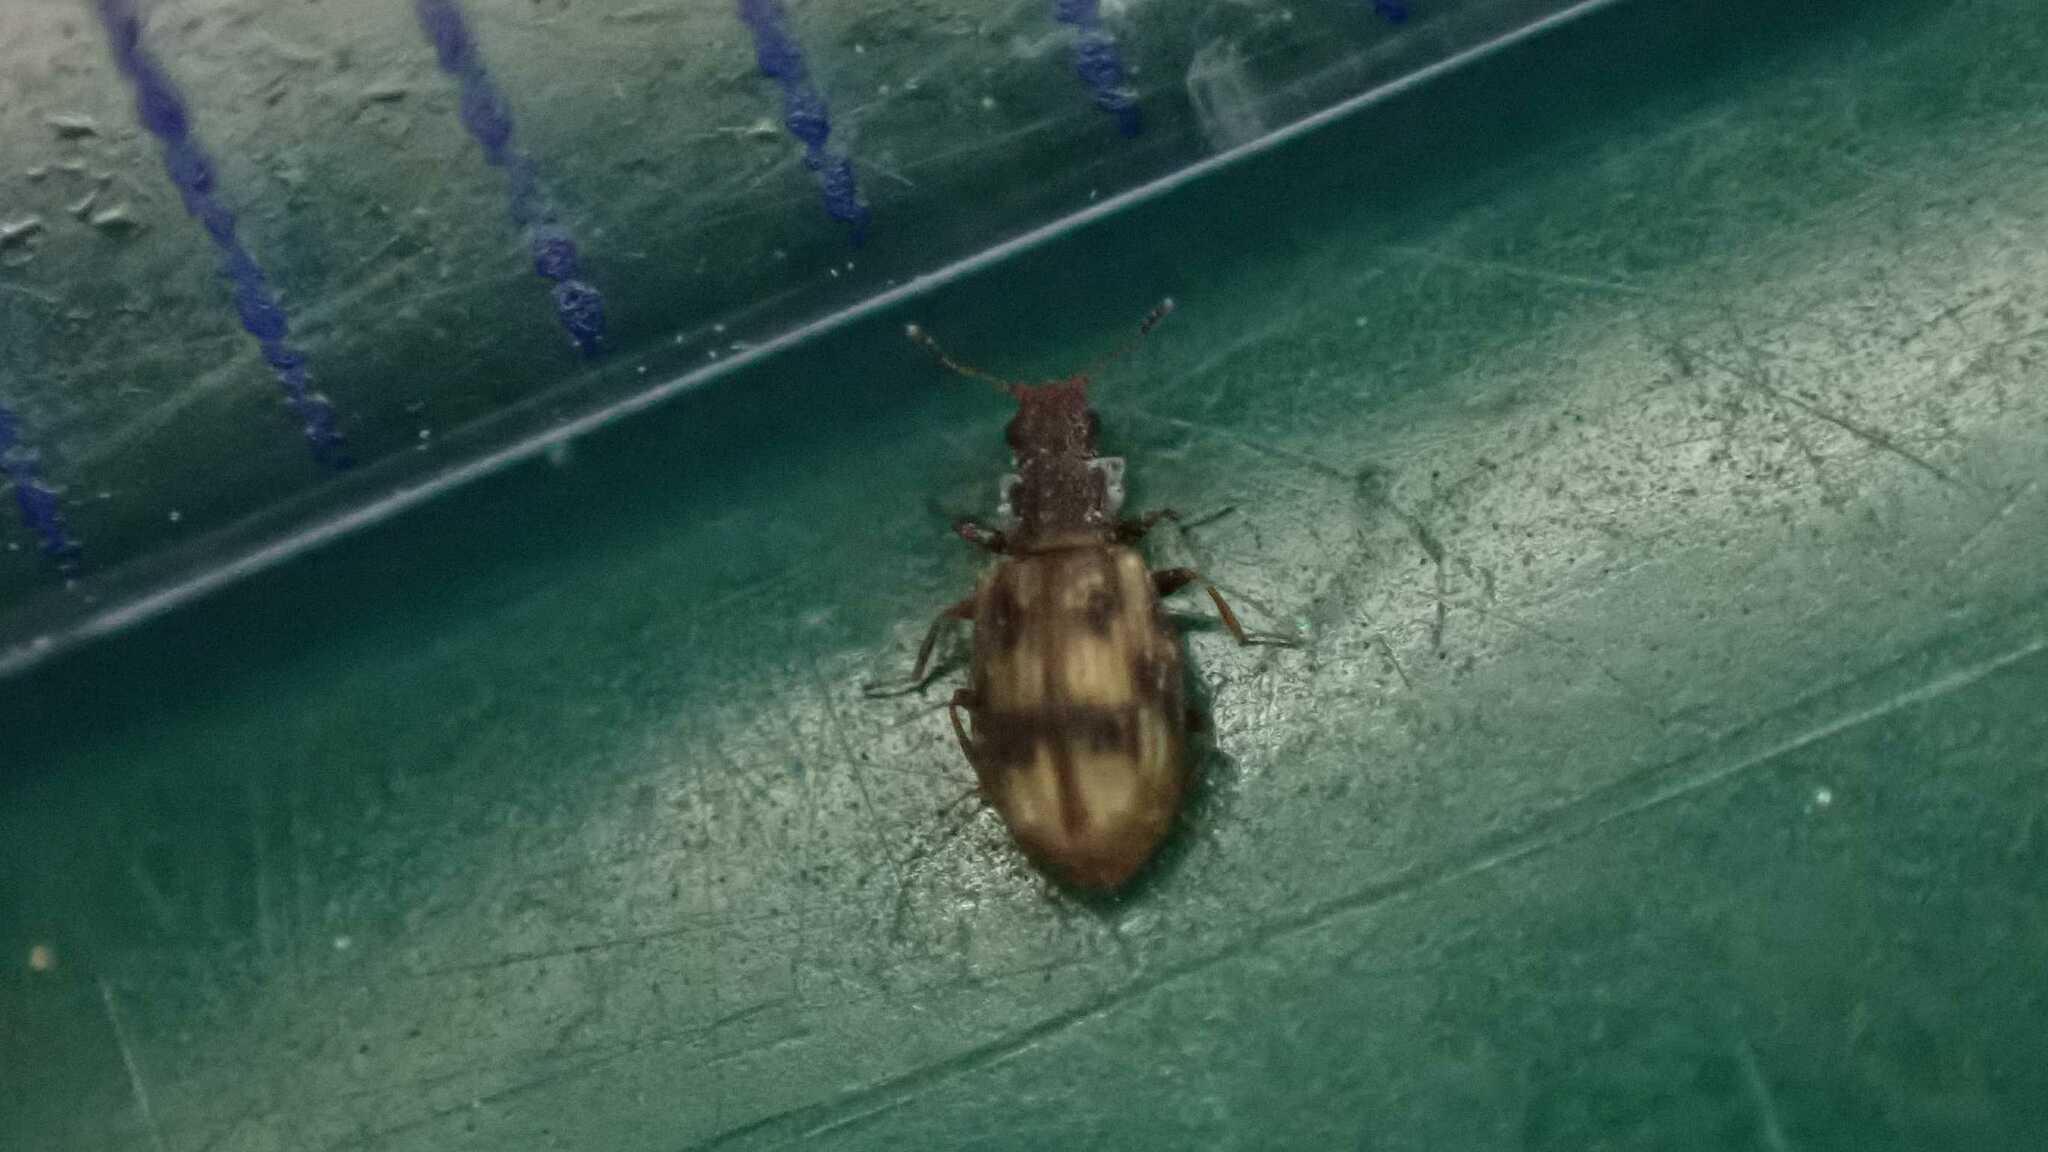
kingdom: Animalia
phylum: Arthropoda
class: Insecta
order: Coleoptera
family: Latridiidae
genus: Cartodere
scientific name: Cartodere bifasciata
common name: Plaster beetle
